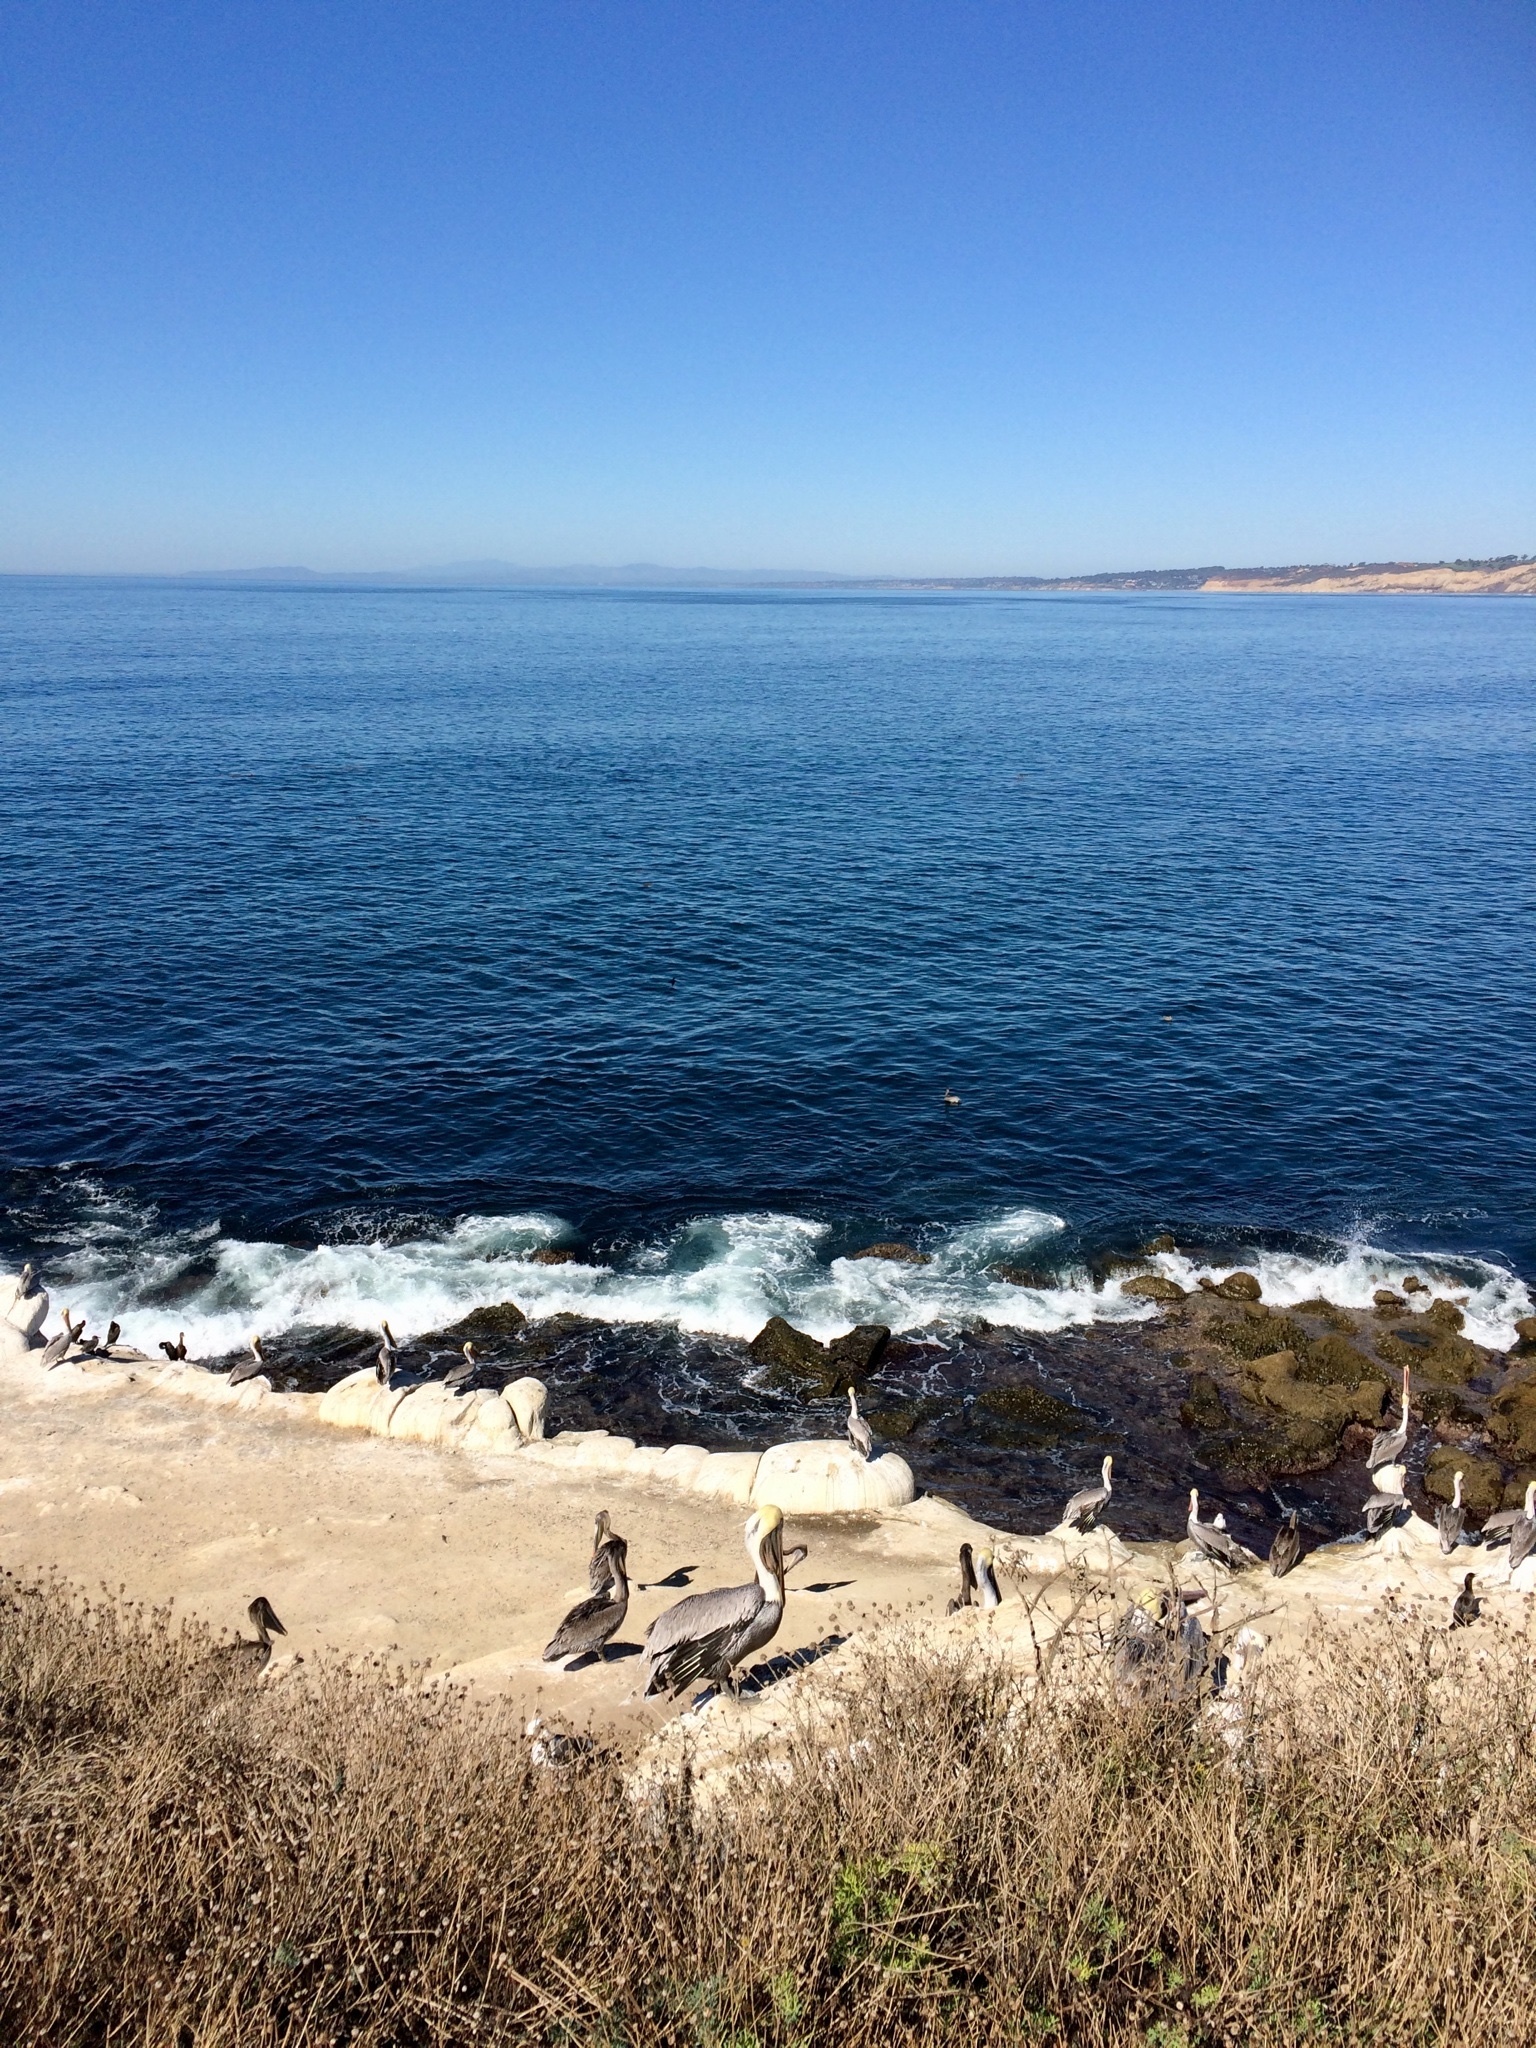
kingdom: Animalia
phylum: Chordata
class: Aves
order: Pelecaniformes
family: Pelecanidae
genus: Pelecanus
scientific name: Pelecanus occidentalis
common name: Brown pelican
